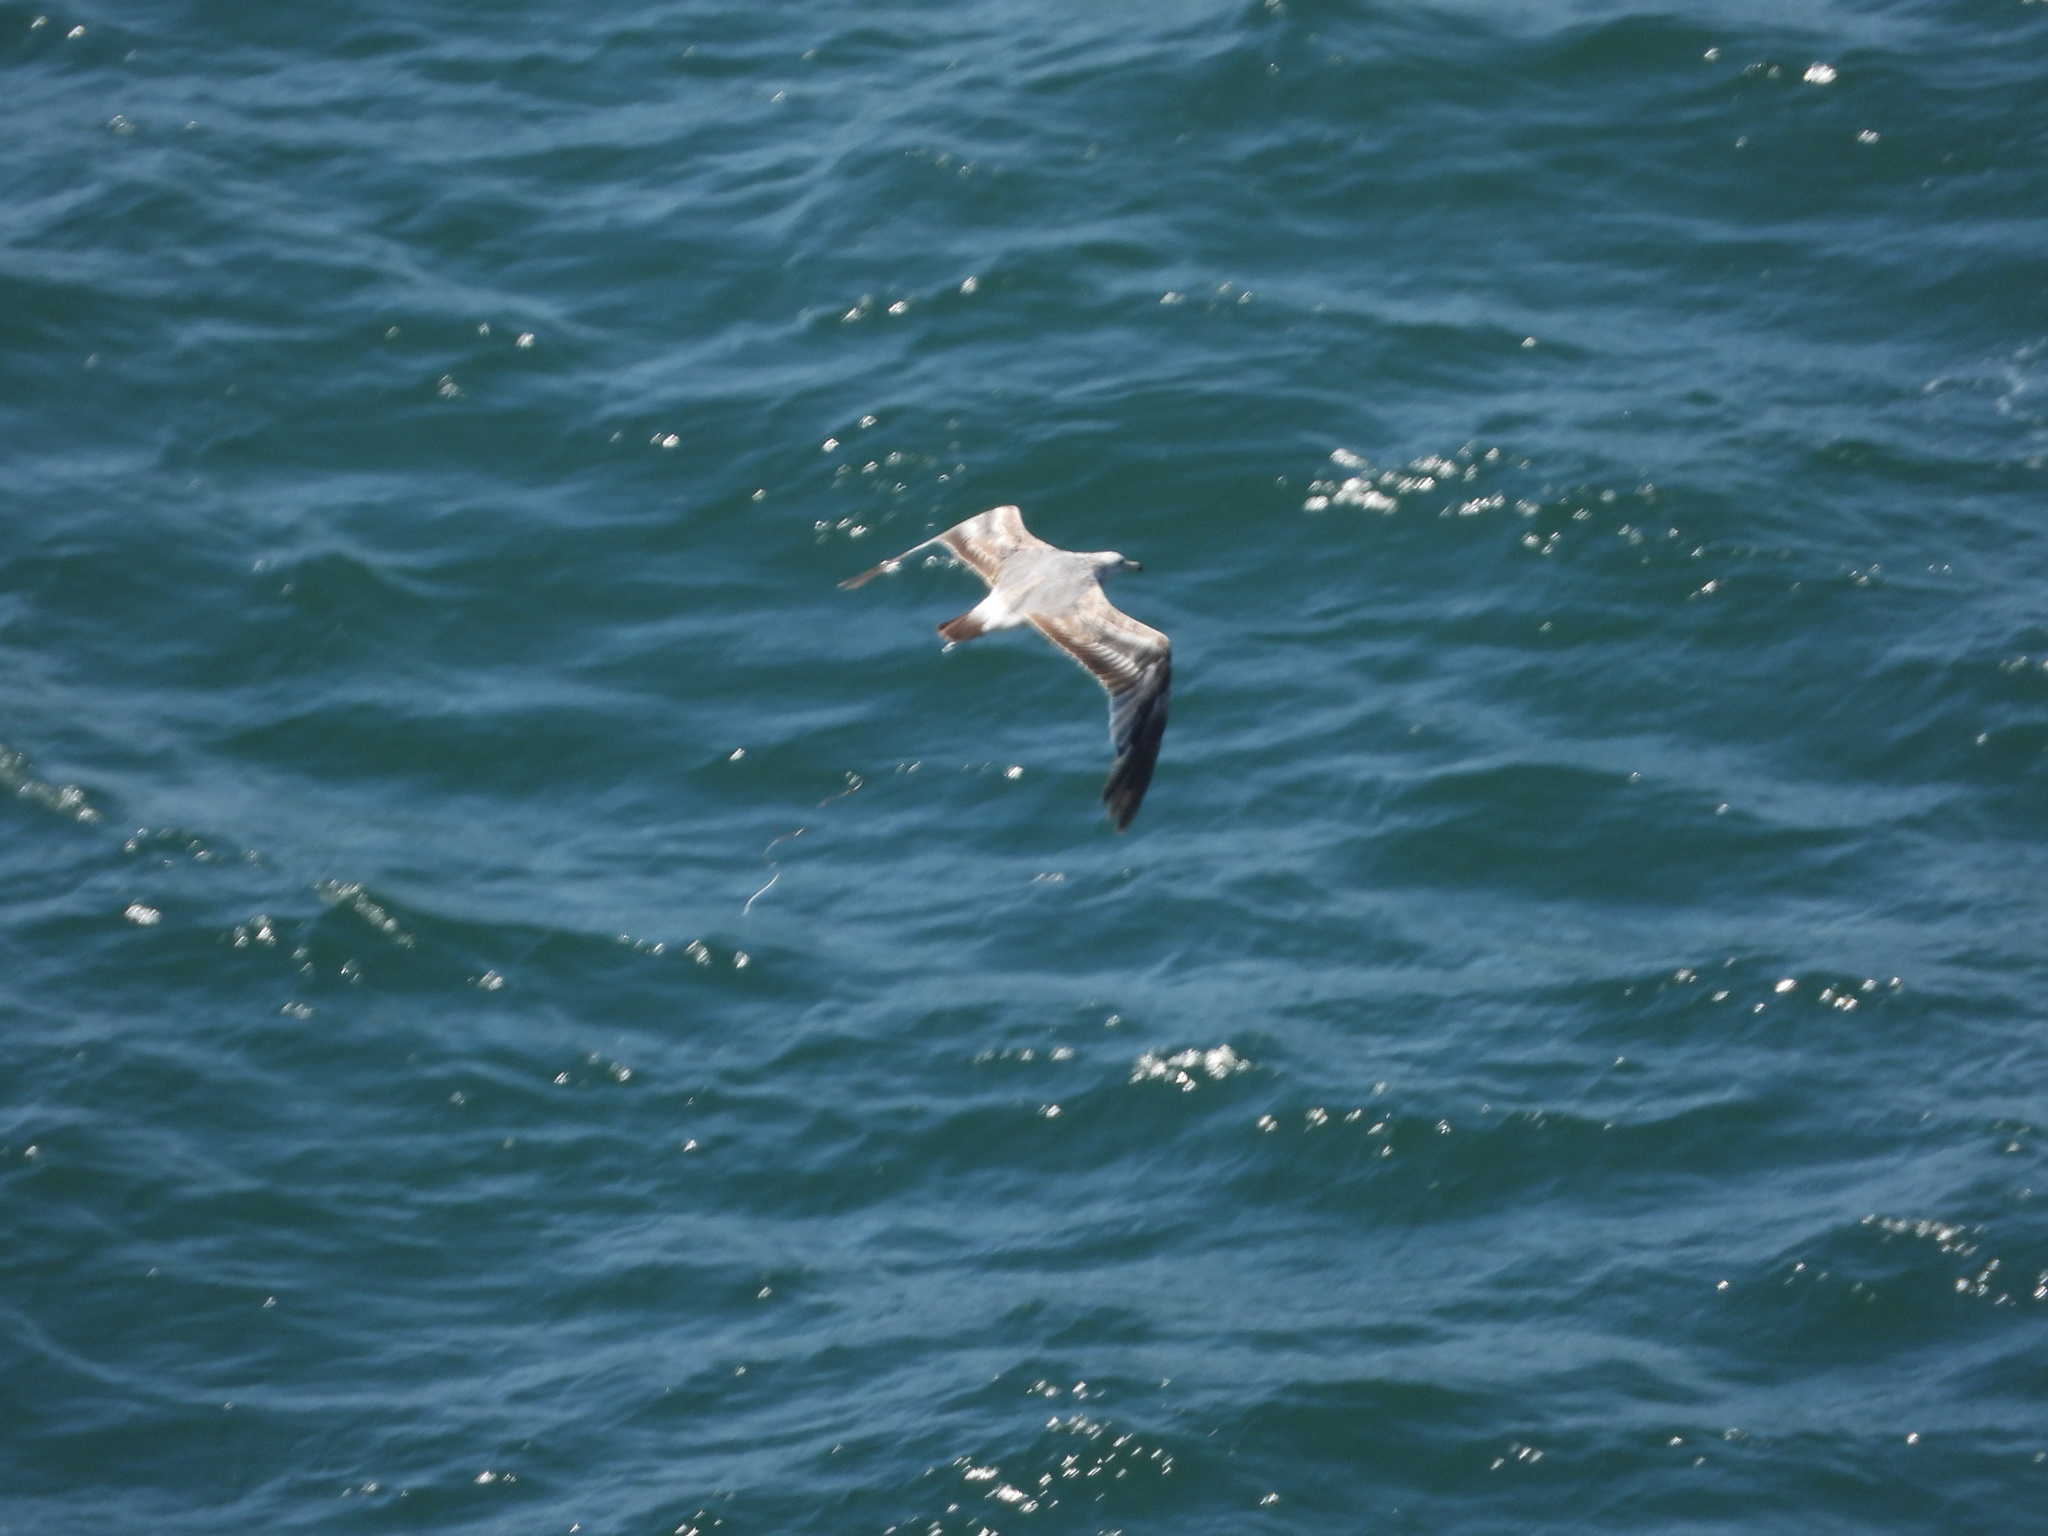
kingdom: Animalia
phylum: Chordata
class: Aves
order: Charadriiformes
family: Laridae
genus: Larus
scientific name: Larus
